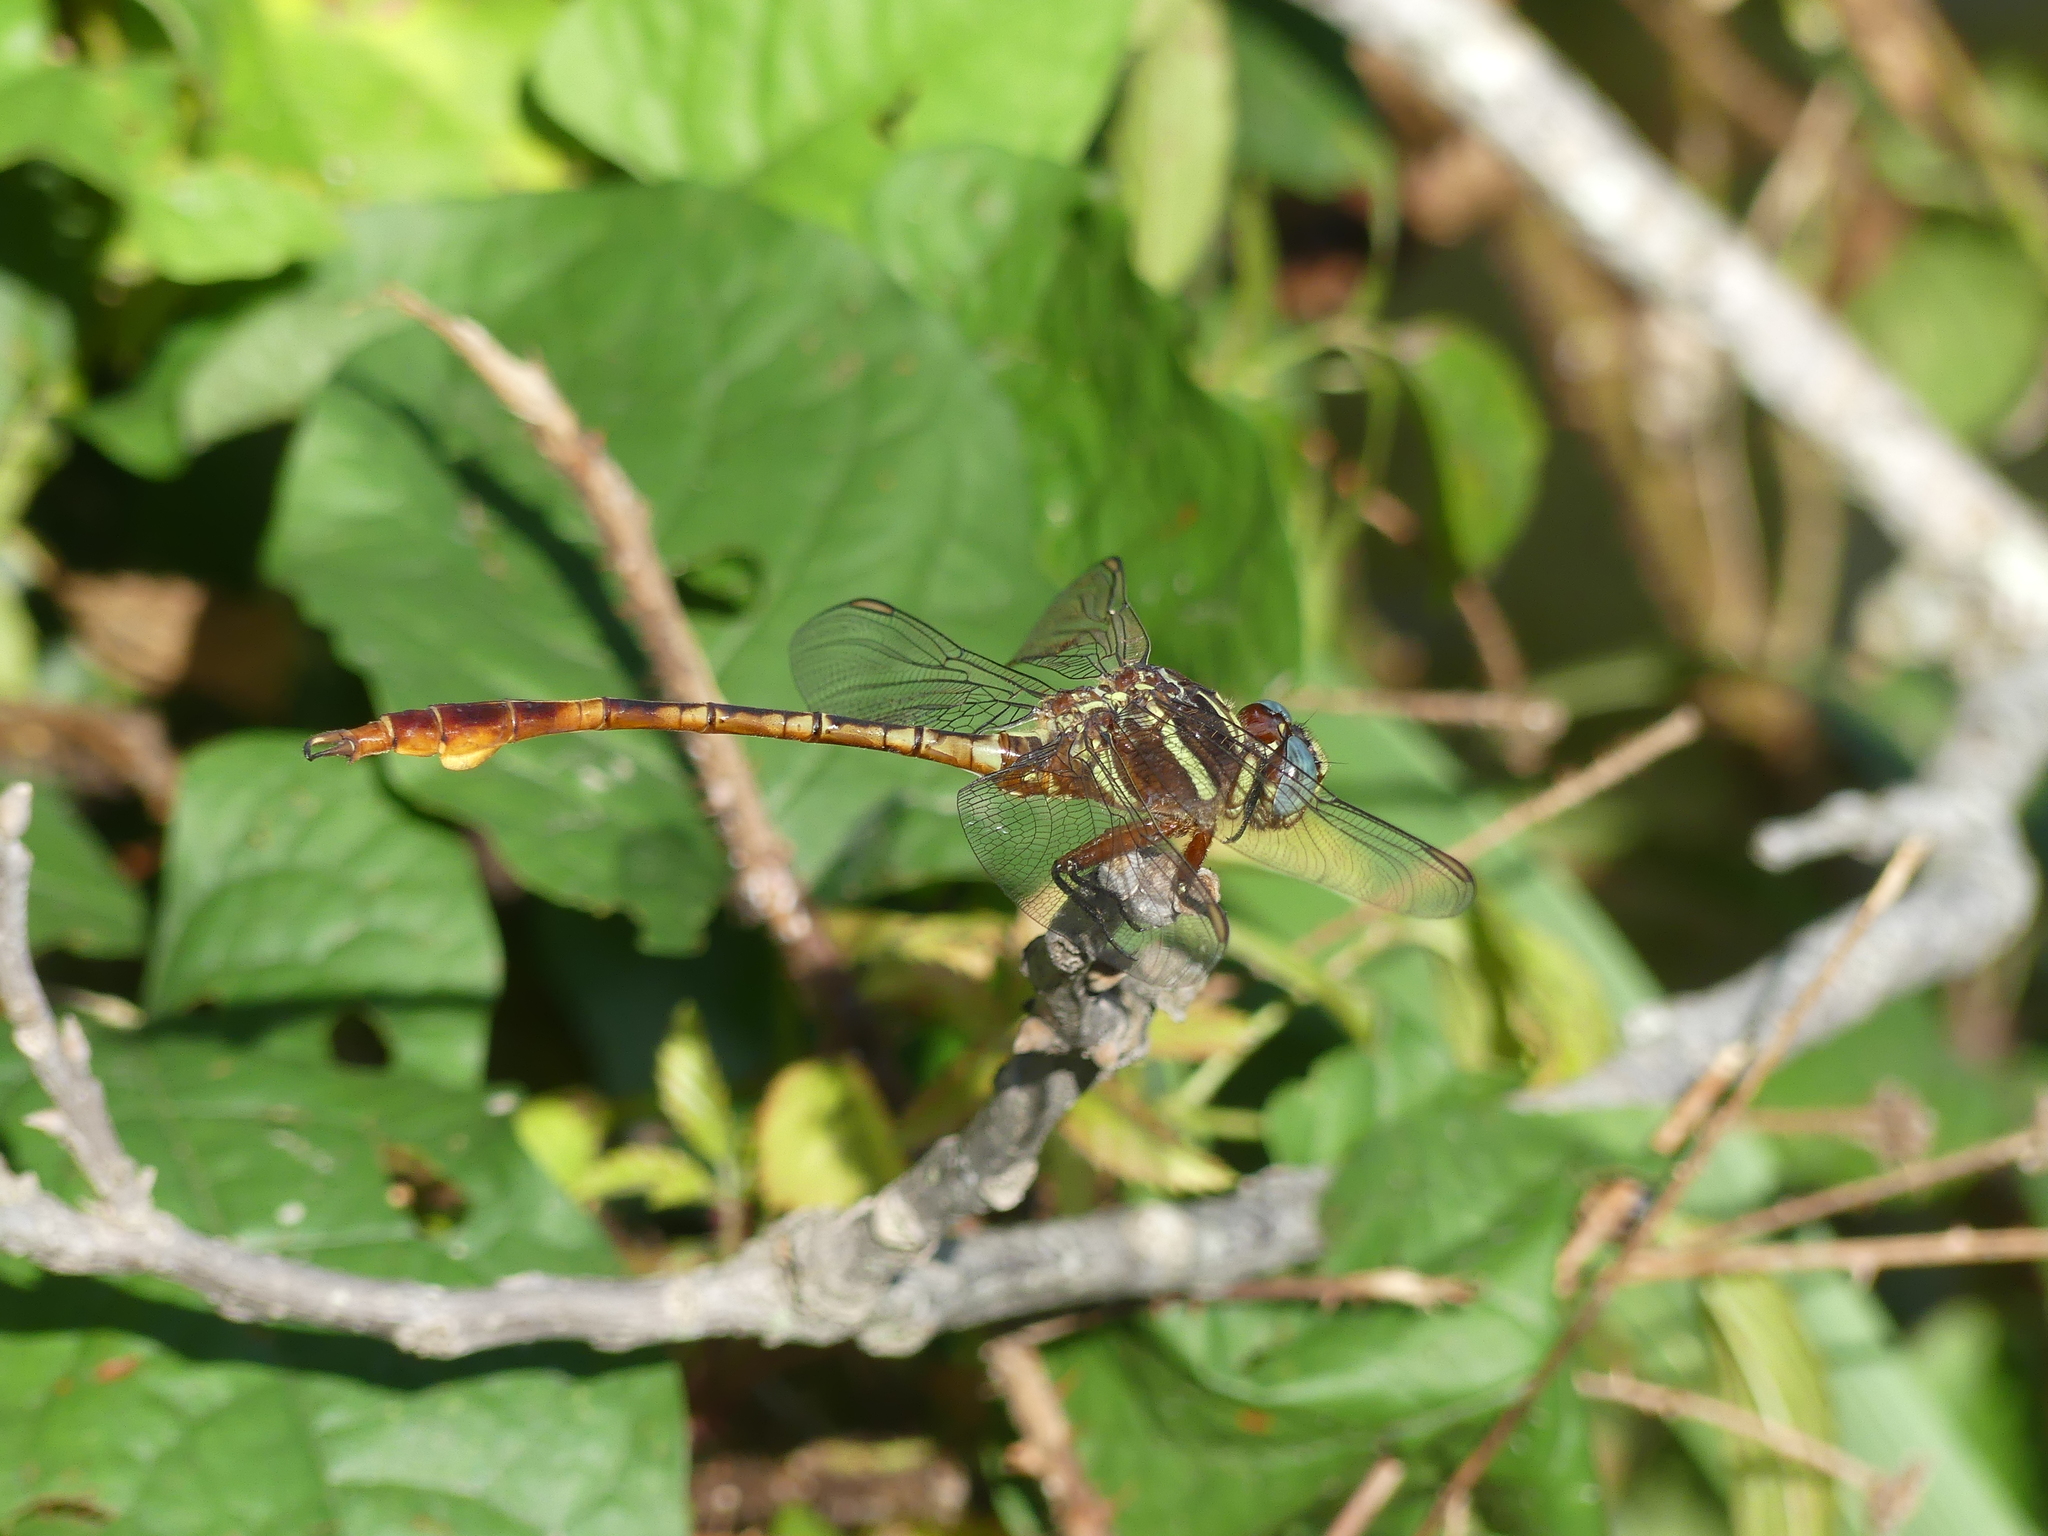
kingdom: Animalia
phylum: Arthropoda
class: Insecta
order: Odonata
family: Gomphidae
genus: Aphylla
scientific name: Aphylla williamsoni
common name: Two-striped forceptail
